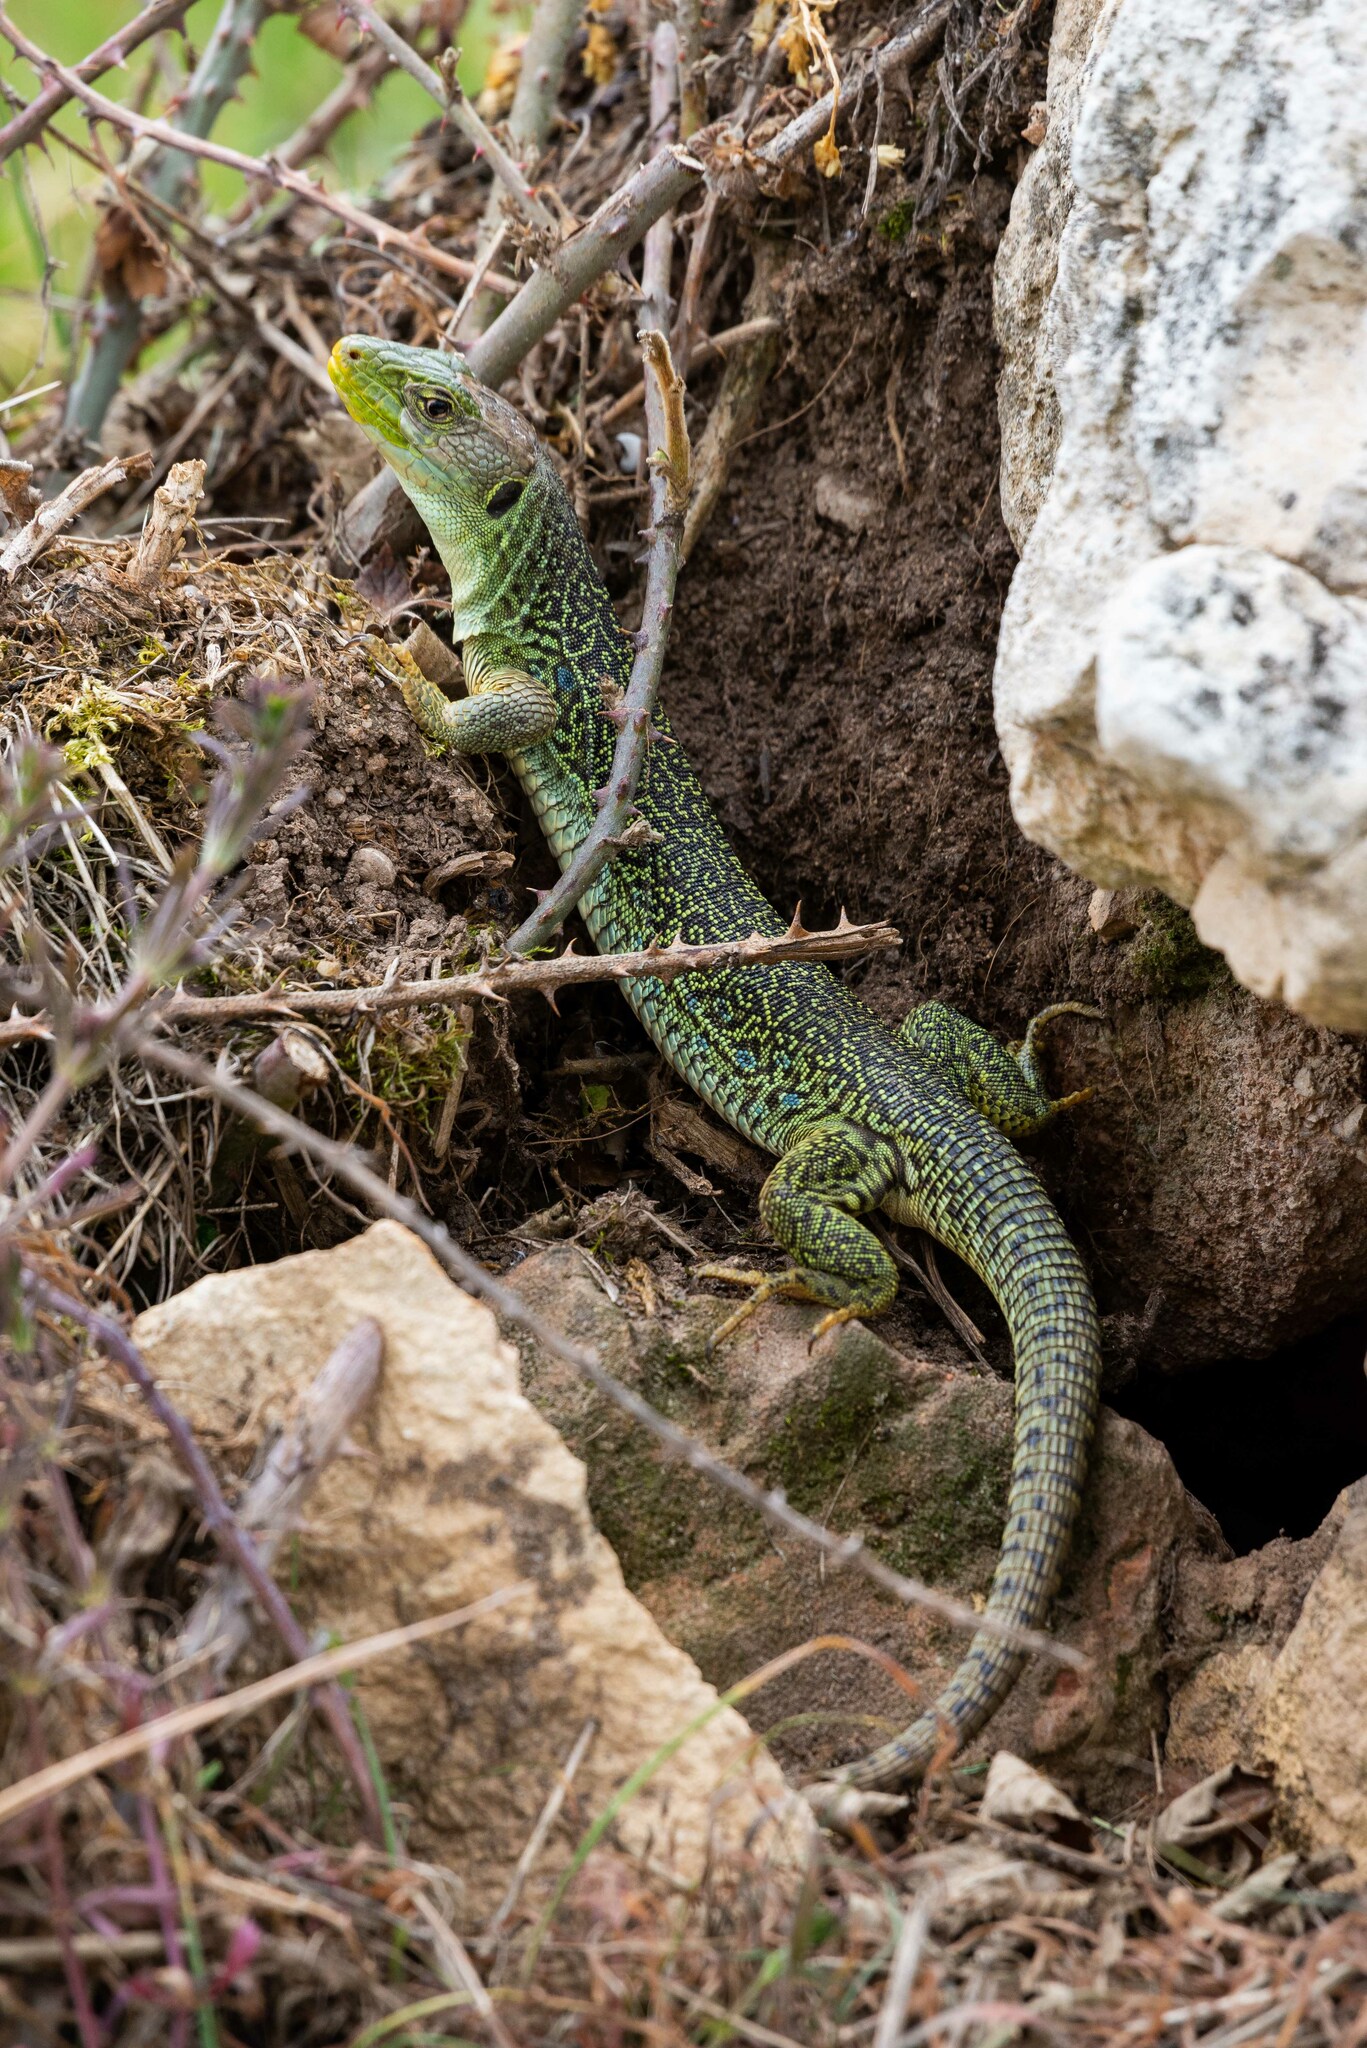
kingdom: Animalia
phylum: Chordata
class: Squamata
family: Lacertidae
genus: Timon
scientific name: Timon lepidus
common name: Ocellated lizard
